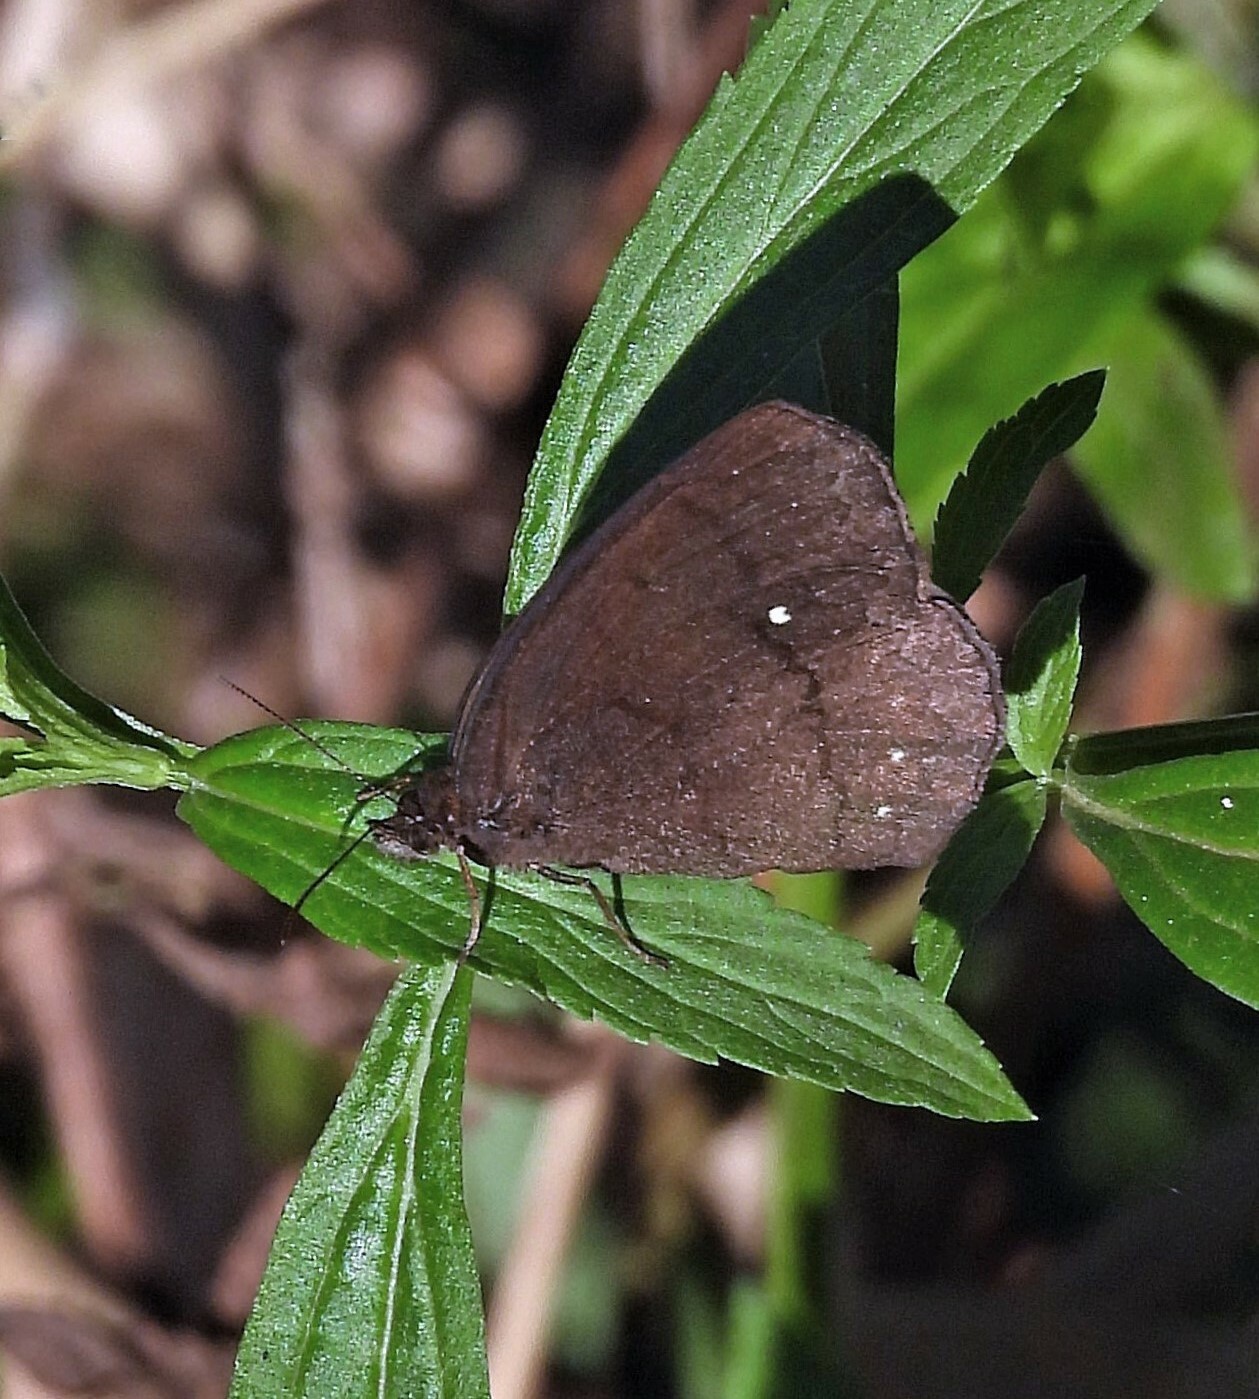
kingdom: Animalia
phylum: Arthropoda
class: Insecta
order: Lepidoptera
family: Nymphalidae
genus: Forsterinaria
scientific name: Forsterinaria quantius
